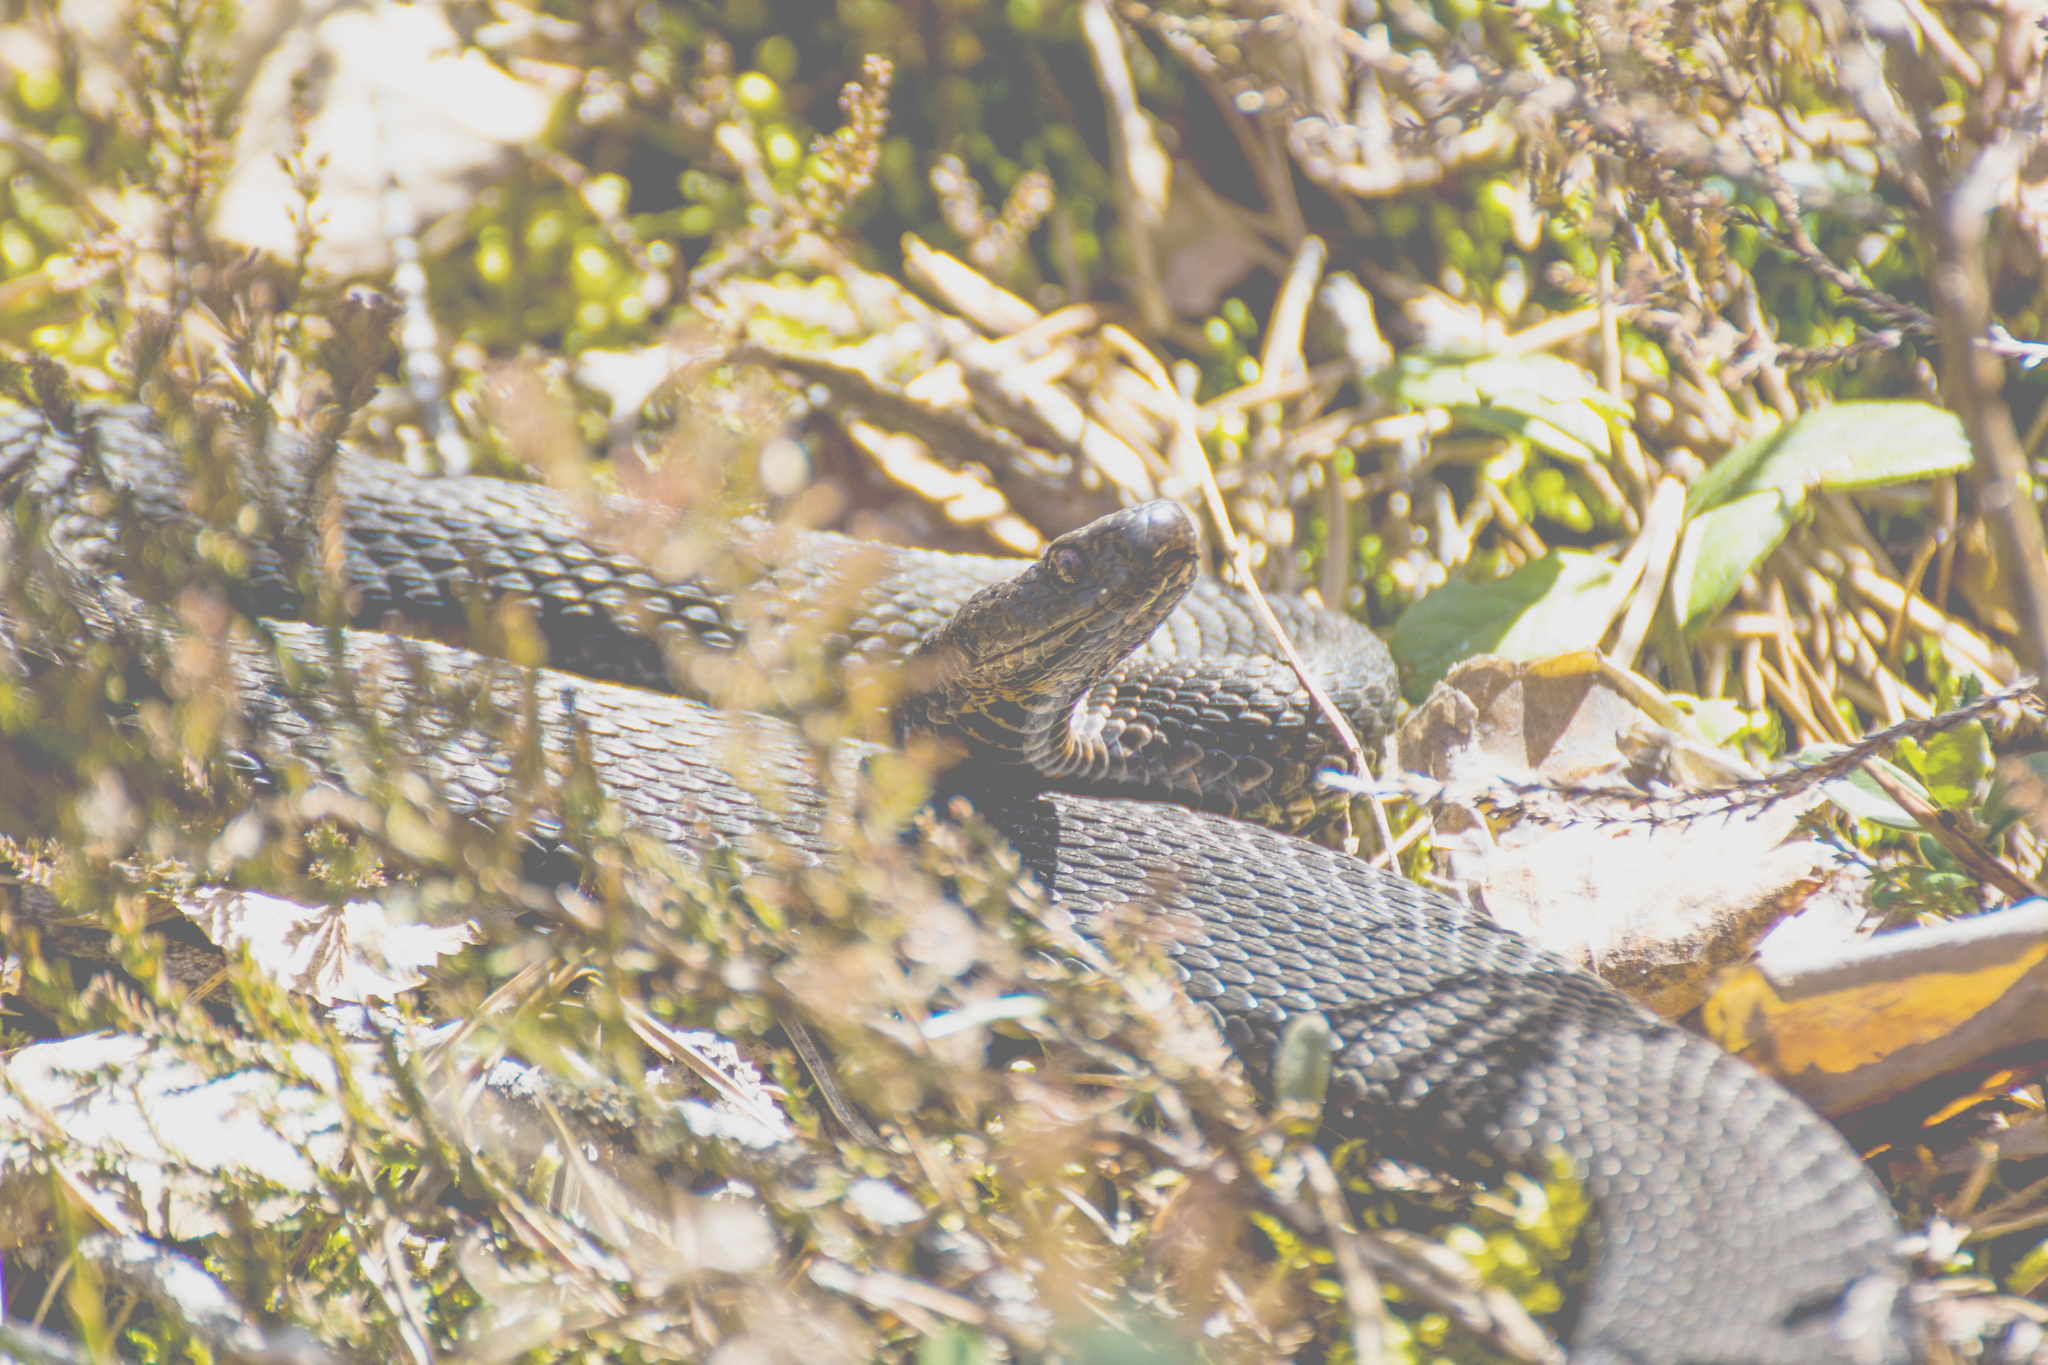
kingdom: Animalia
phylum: Chordata
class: Squamata
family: Viperidae
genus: Vipera
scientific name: Vipera berus
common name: Adder
